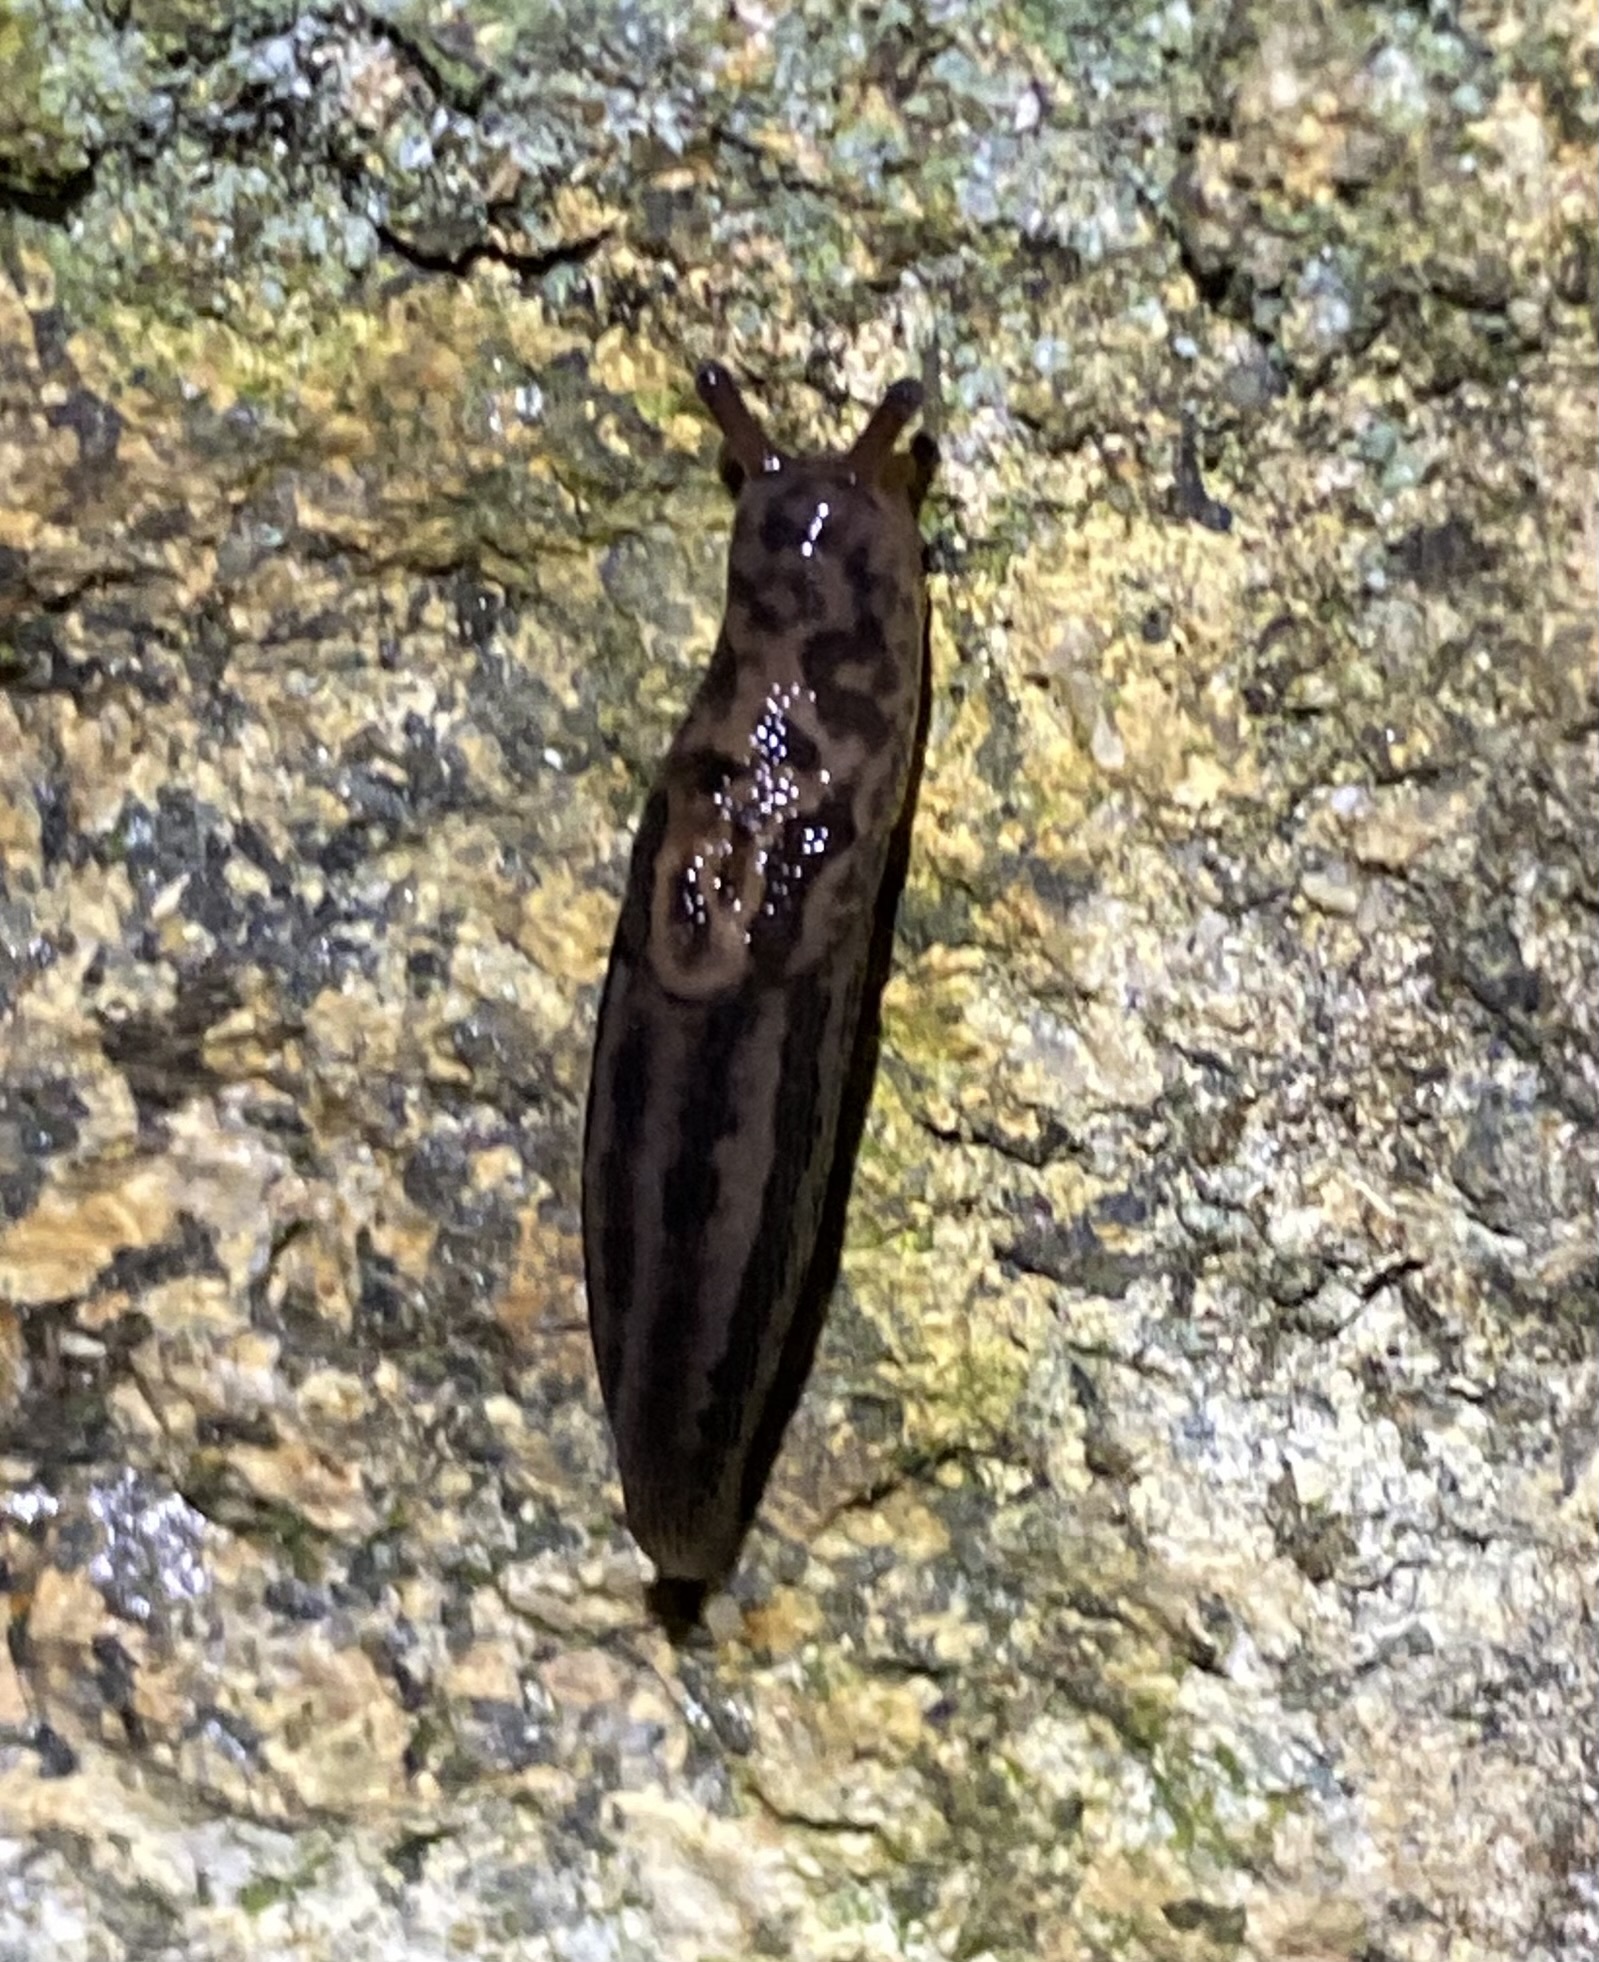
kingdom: Animalia
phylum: Mollusca
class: Gastropoda
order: Stylommatophora
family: Limacidae
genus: Limax
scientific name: Limax maximus
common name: Great grey slug
